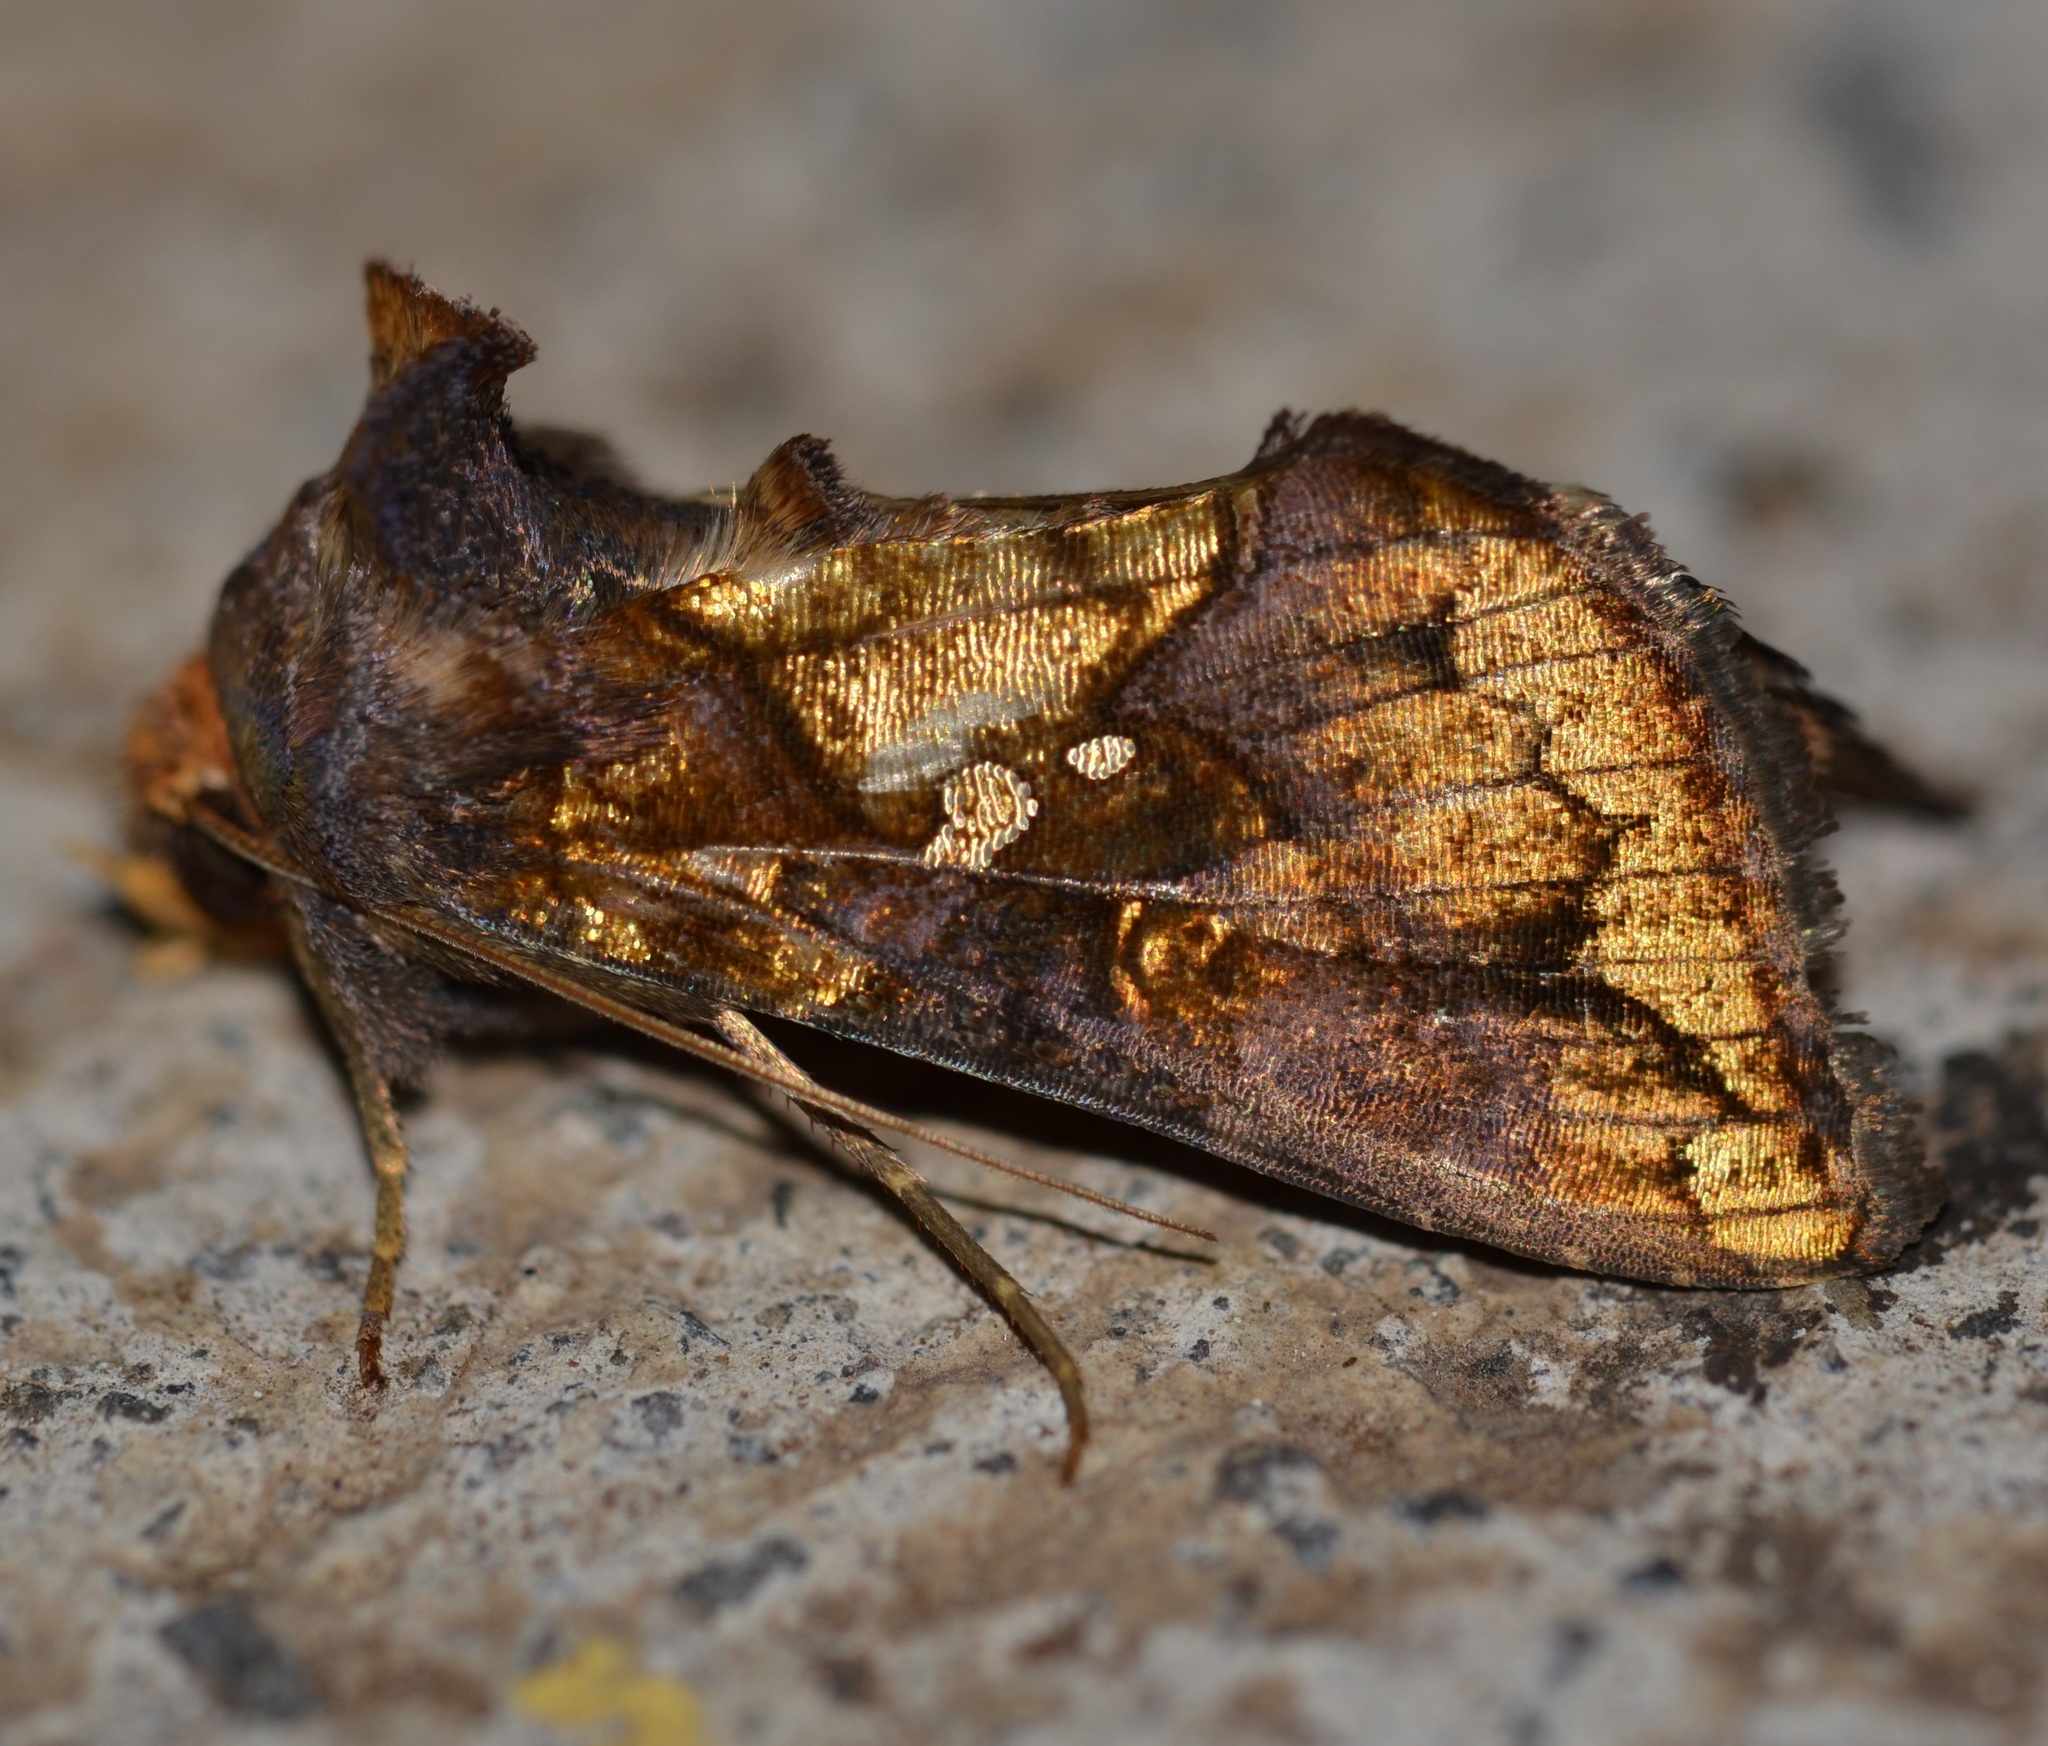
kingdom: Animalia
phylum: Arthropoda
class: Insecta
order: Lepidoptera
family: Noctuidae
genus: Argyrogramma
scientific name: Argyrogramma verruca
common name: Golden looper moth
